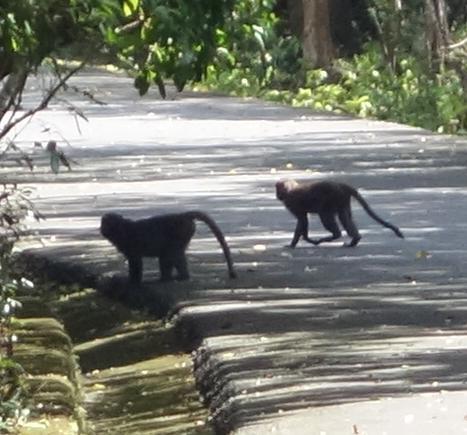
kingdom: Animalia
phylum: Chordata
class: Mammalia
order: Primates
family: Cercopithecidae
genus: Macaca
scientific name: Macaca cyclopis
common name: Formosan rock macaque
